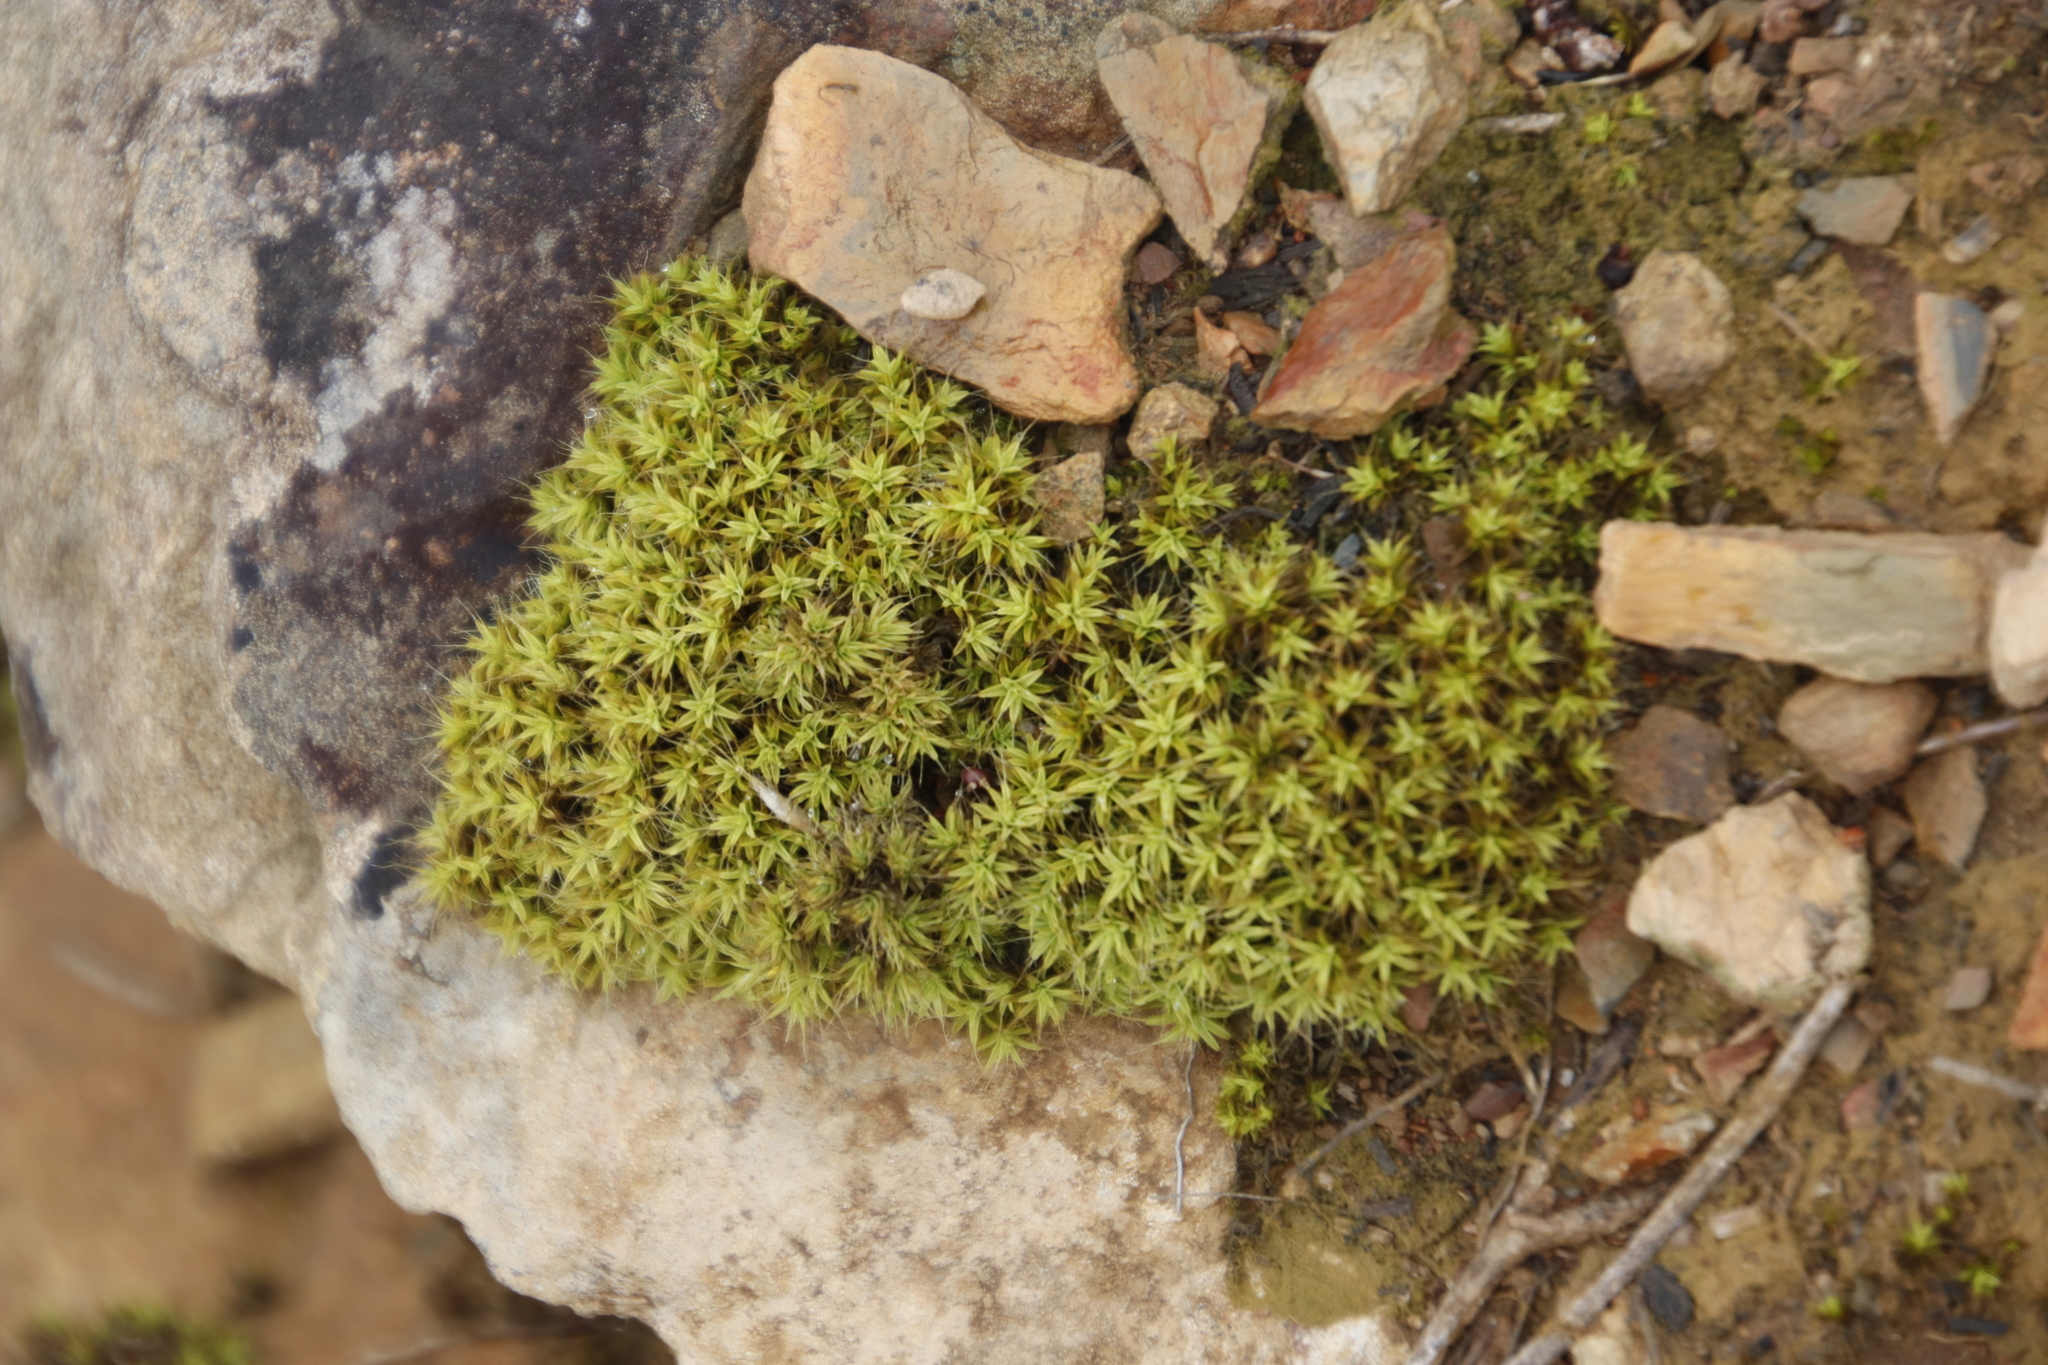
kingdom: Plantae
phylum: Bryophyta
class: Bryopsida
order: Pottiales
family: Pottiaceae
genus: Pseudocrossidium
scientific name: Pseudocrossidium crinitum
